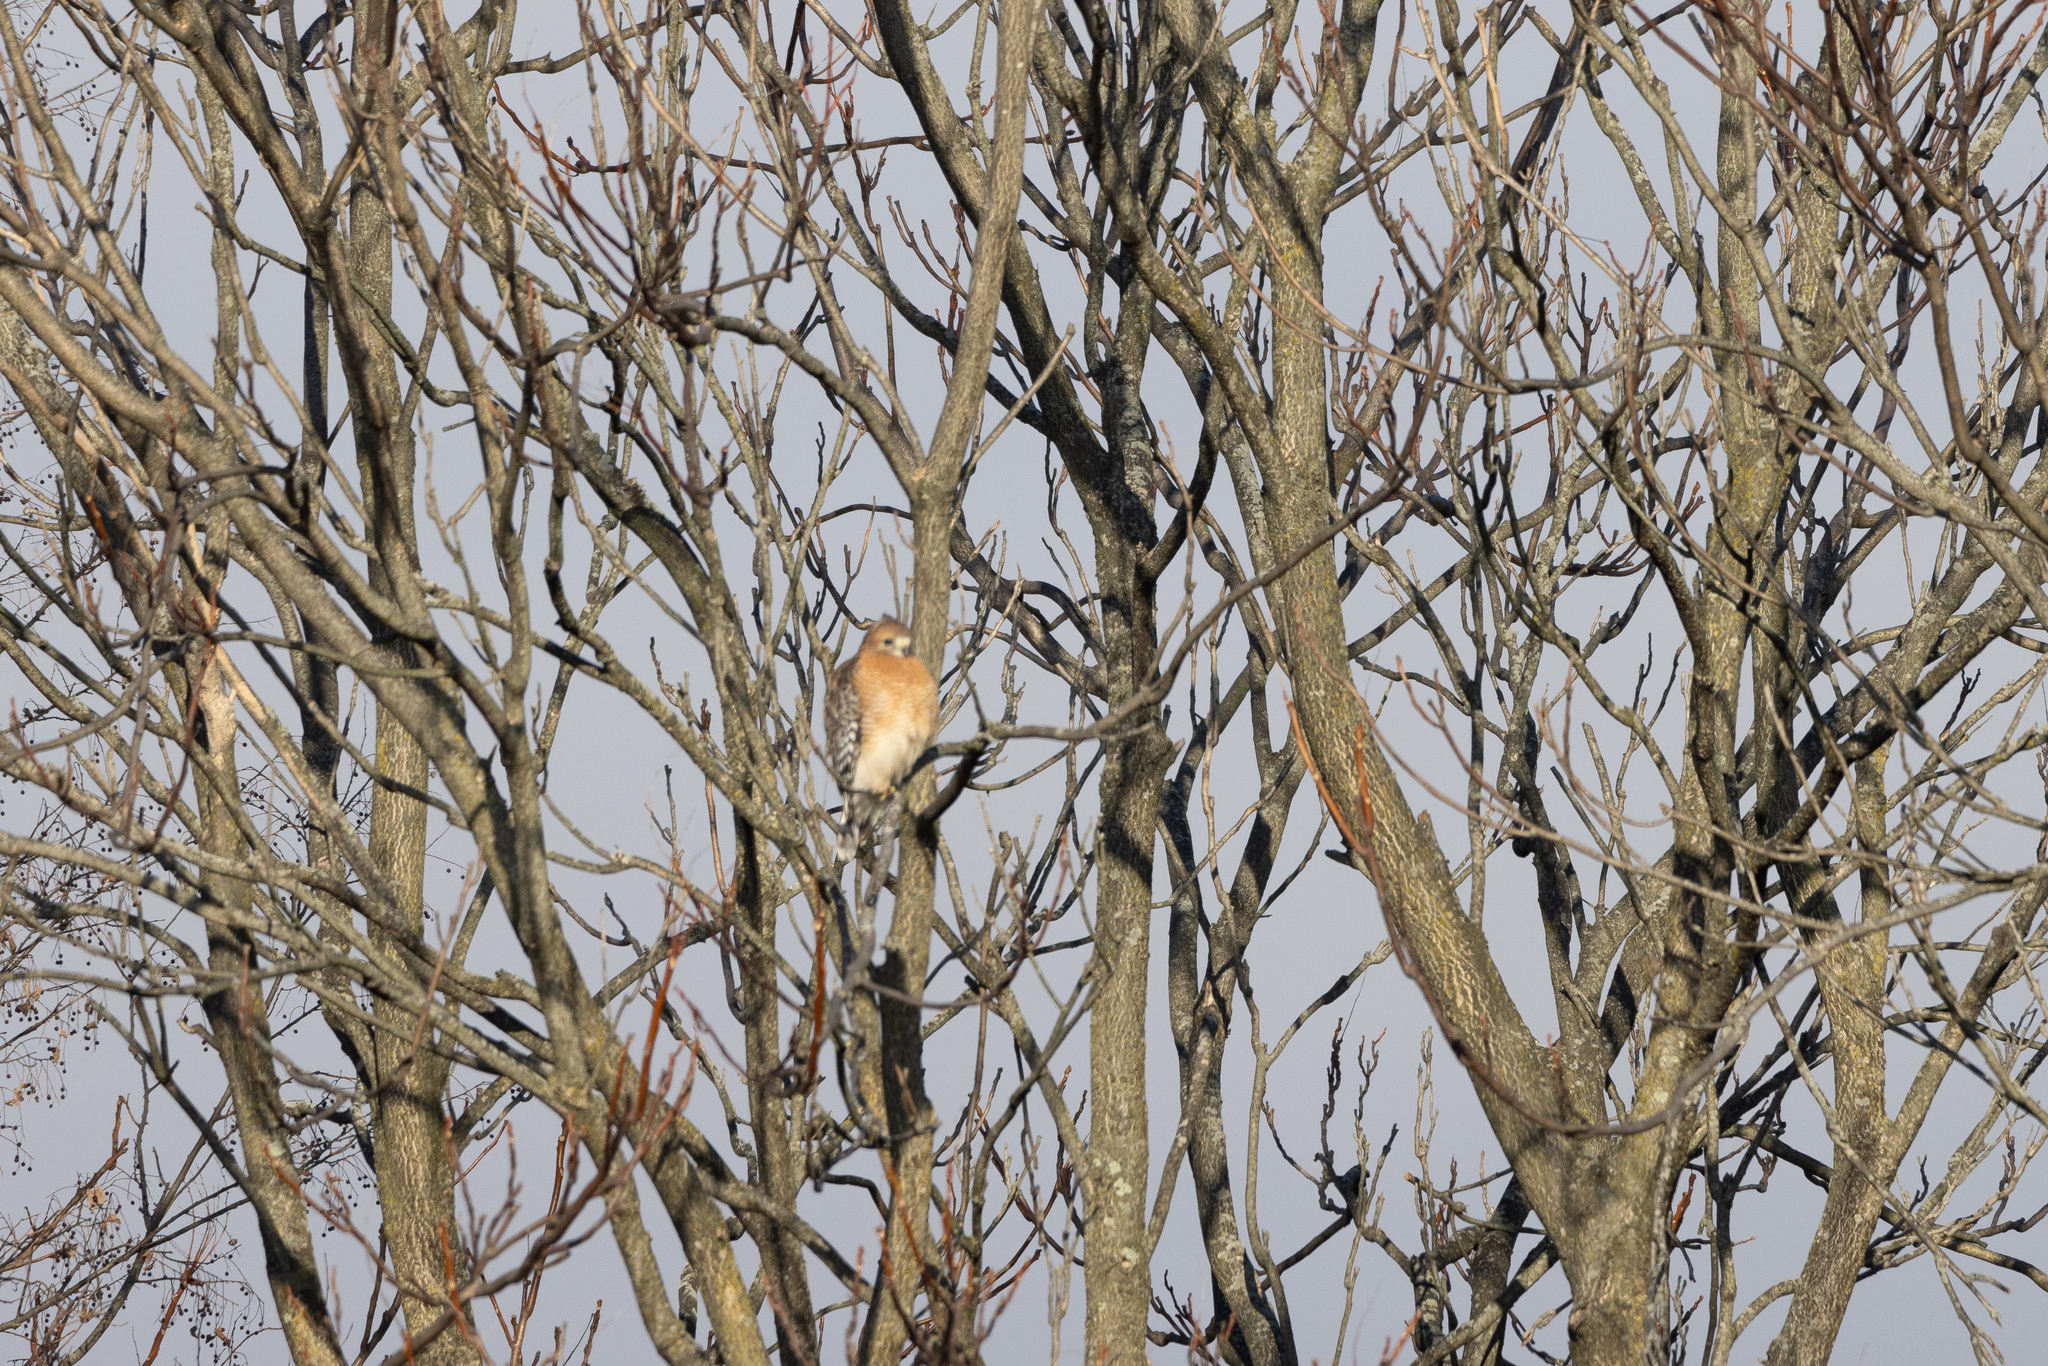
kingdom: Animalia
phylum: Chordata
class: Aves
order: Accipitriformes
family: Accipitridae
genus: Buteo
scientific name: Buteo lineatus
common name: Red-shouldered hawk
